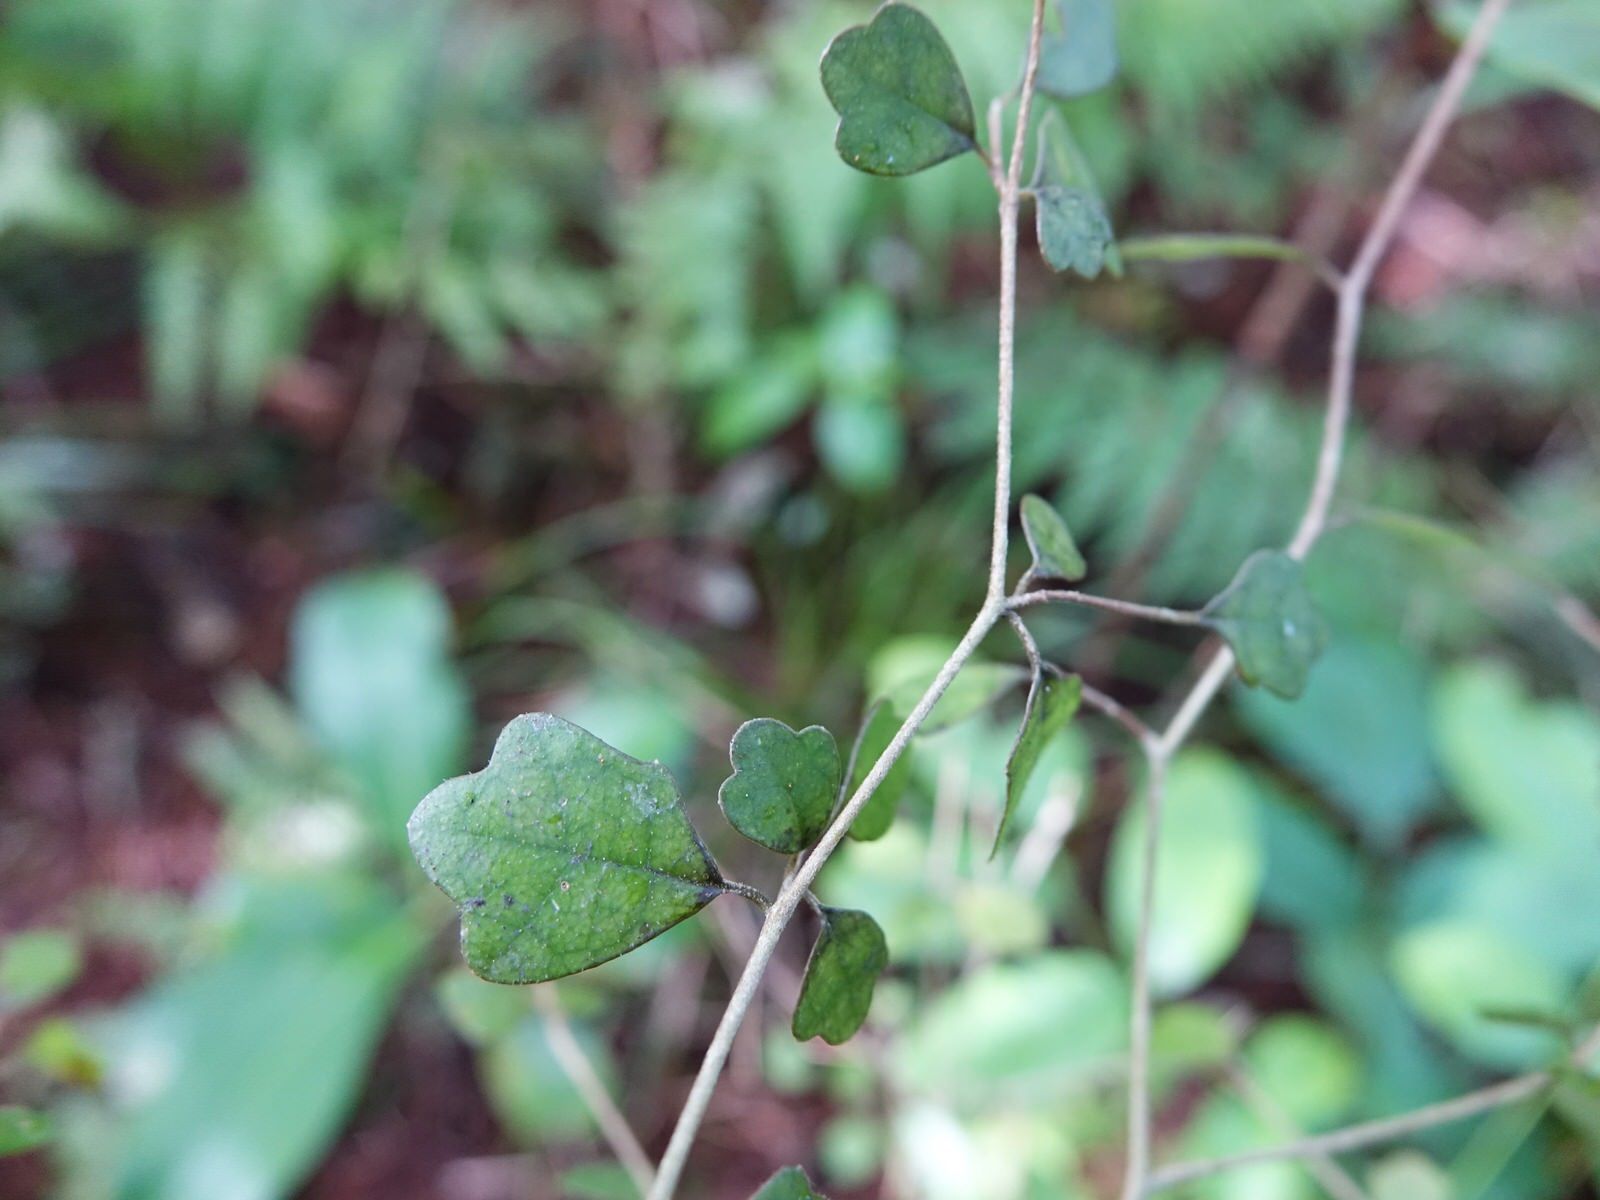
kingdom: Plantae
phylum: Tracheophyta
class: Magnoliopsida
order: Apiales
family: Pennantiaceae
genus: Pennantia
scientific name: Pennantia corymbosa
